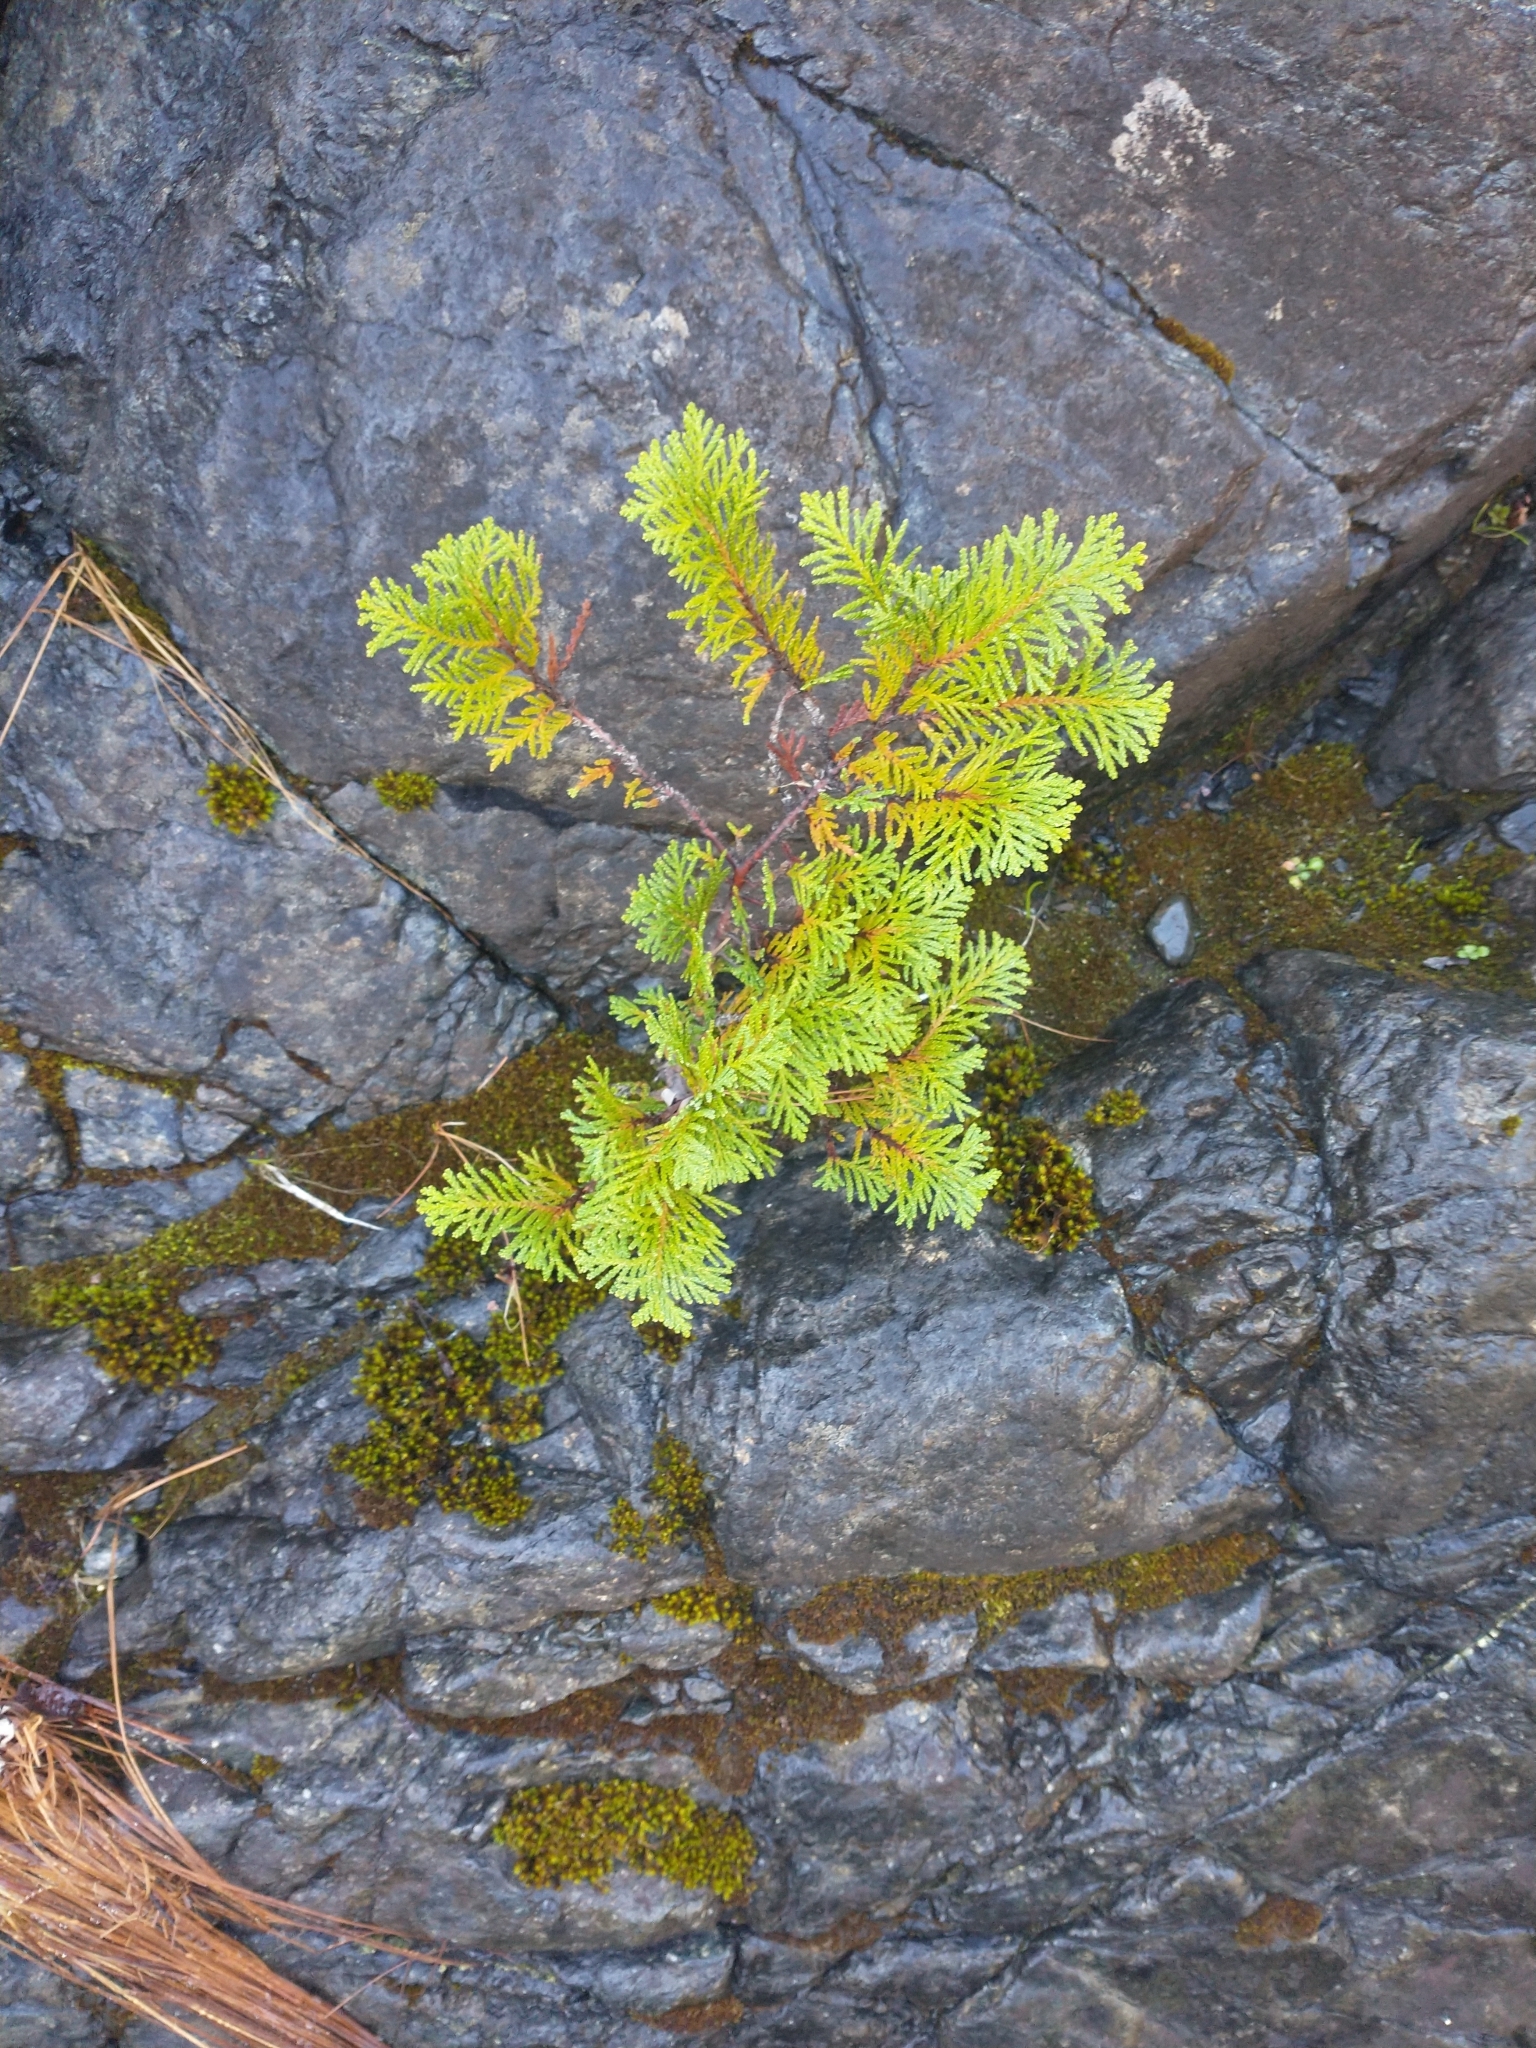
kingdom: Plantae
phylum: Tracheophyta
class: Pinopsida
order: Pinales
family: Cupressaceae
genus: Chamaecyparis
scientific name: Chamaecyparis lawsoniana
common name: Lawson's cypress
